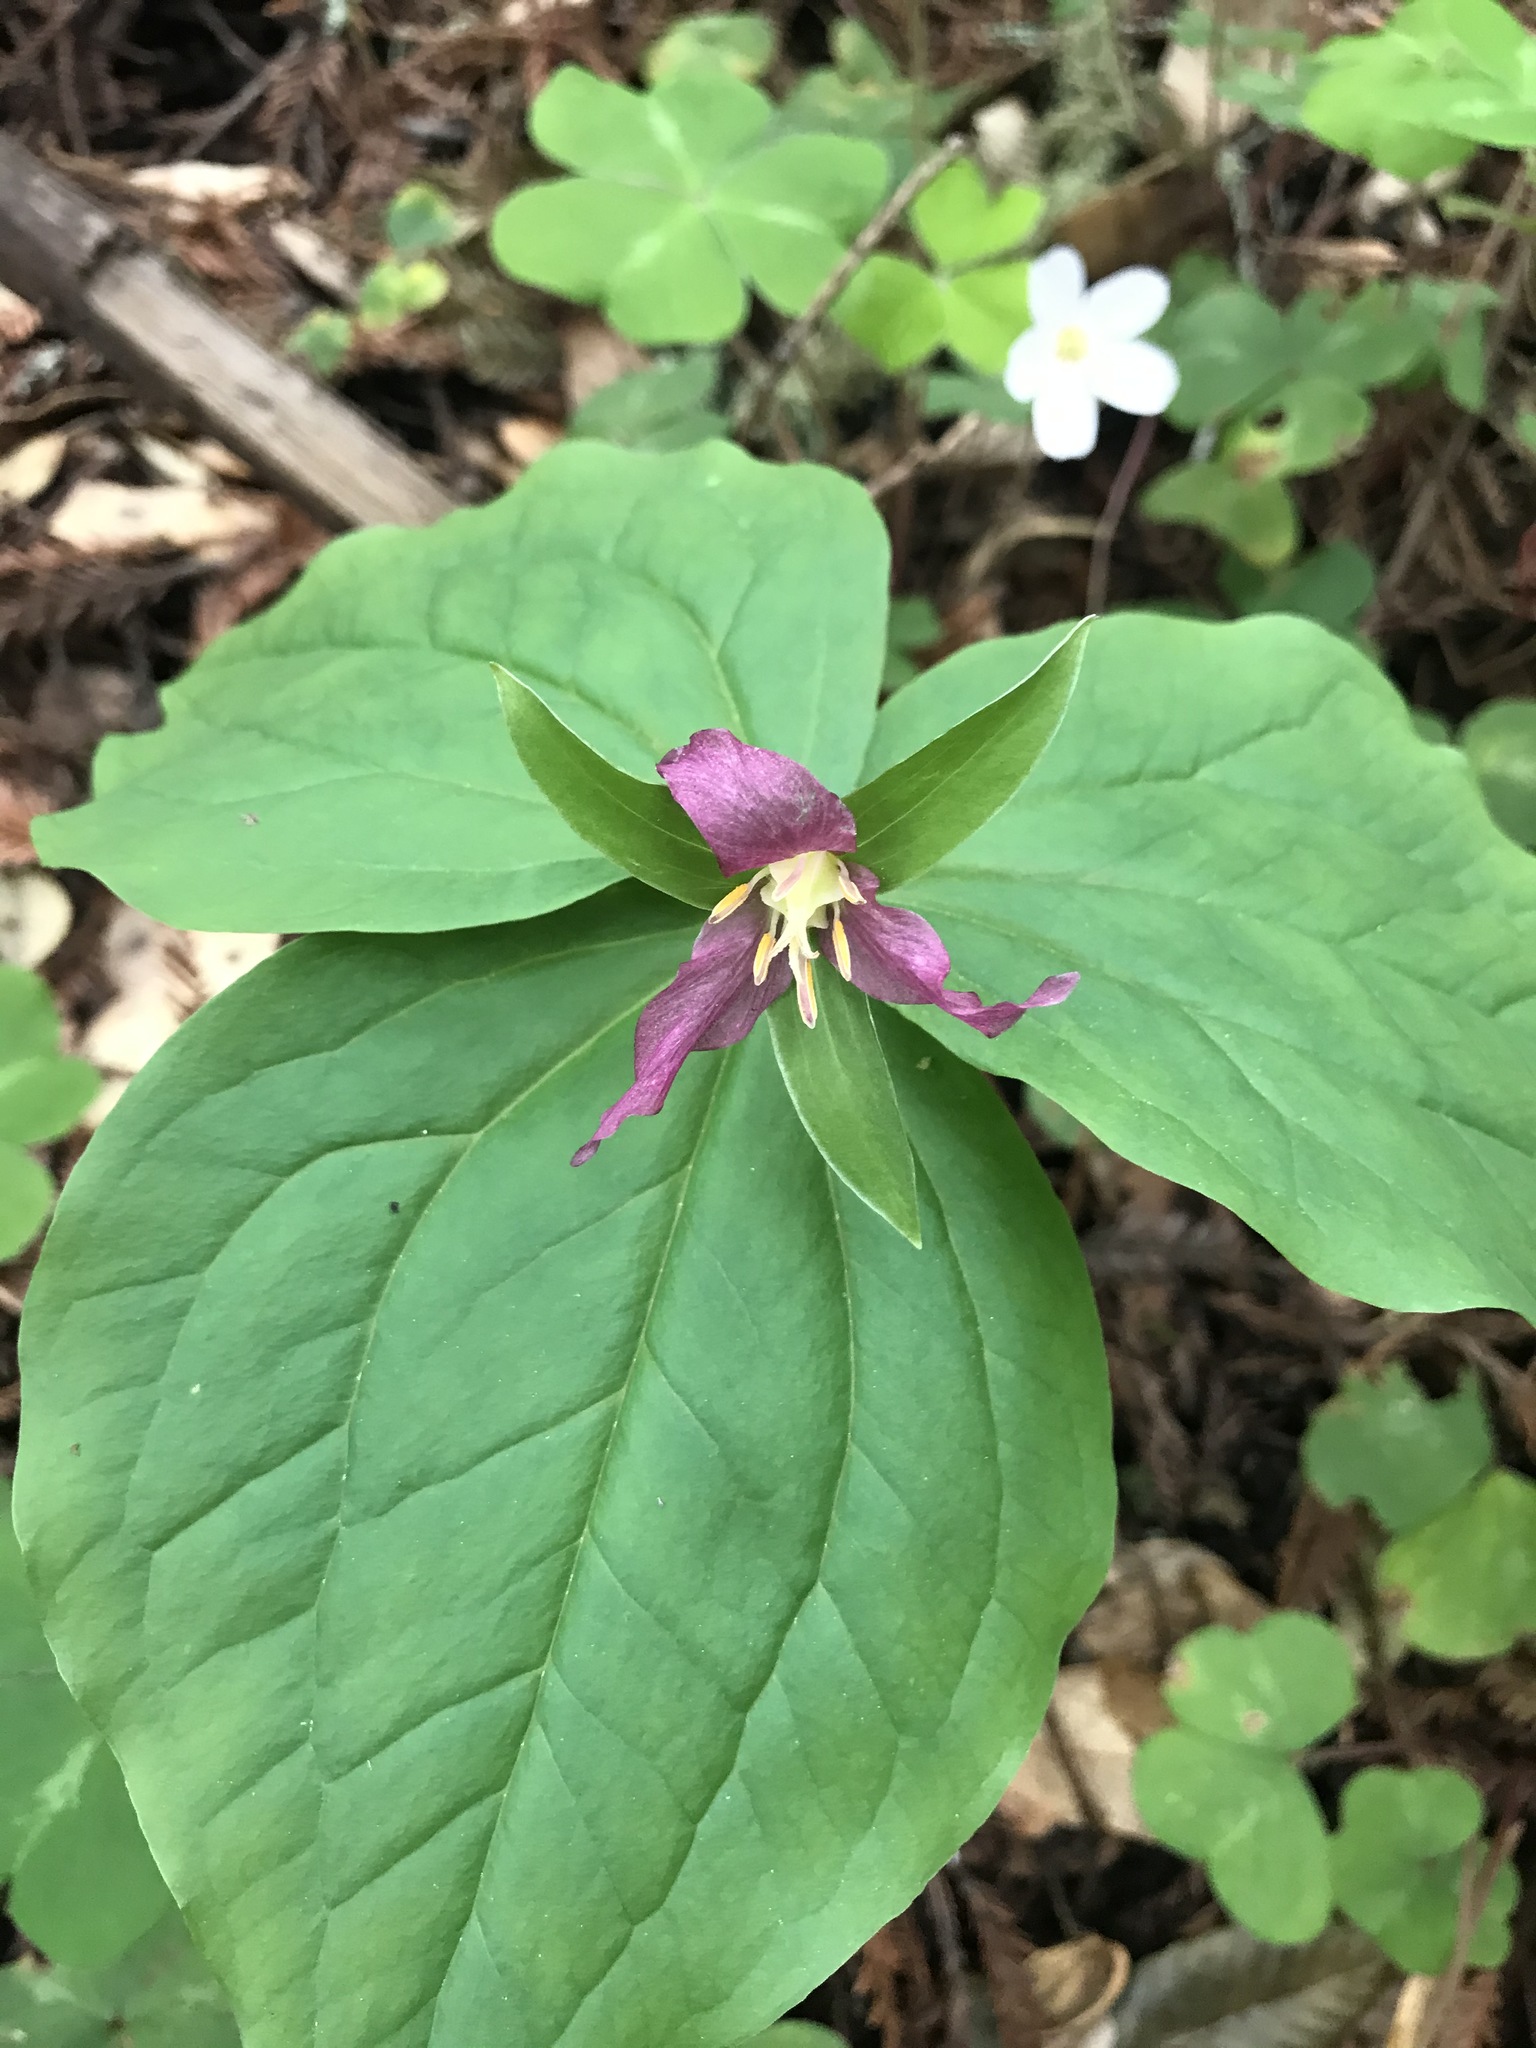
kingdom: Plantae
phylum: Tracheophyta
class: Liliopsida
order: Liliales
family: Melanthiaceae
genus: Trillium
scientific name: Trillium ovatum
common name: Pacific trillium
